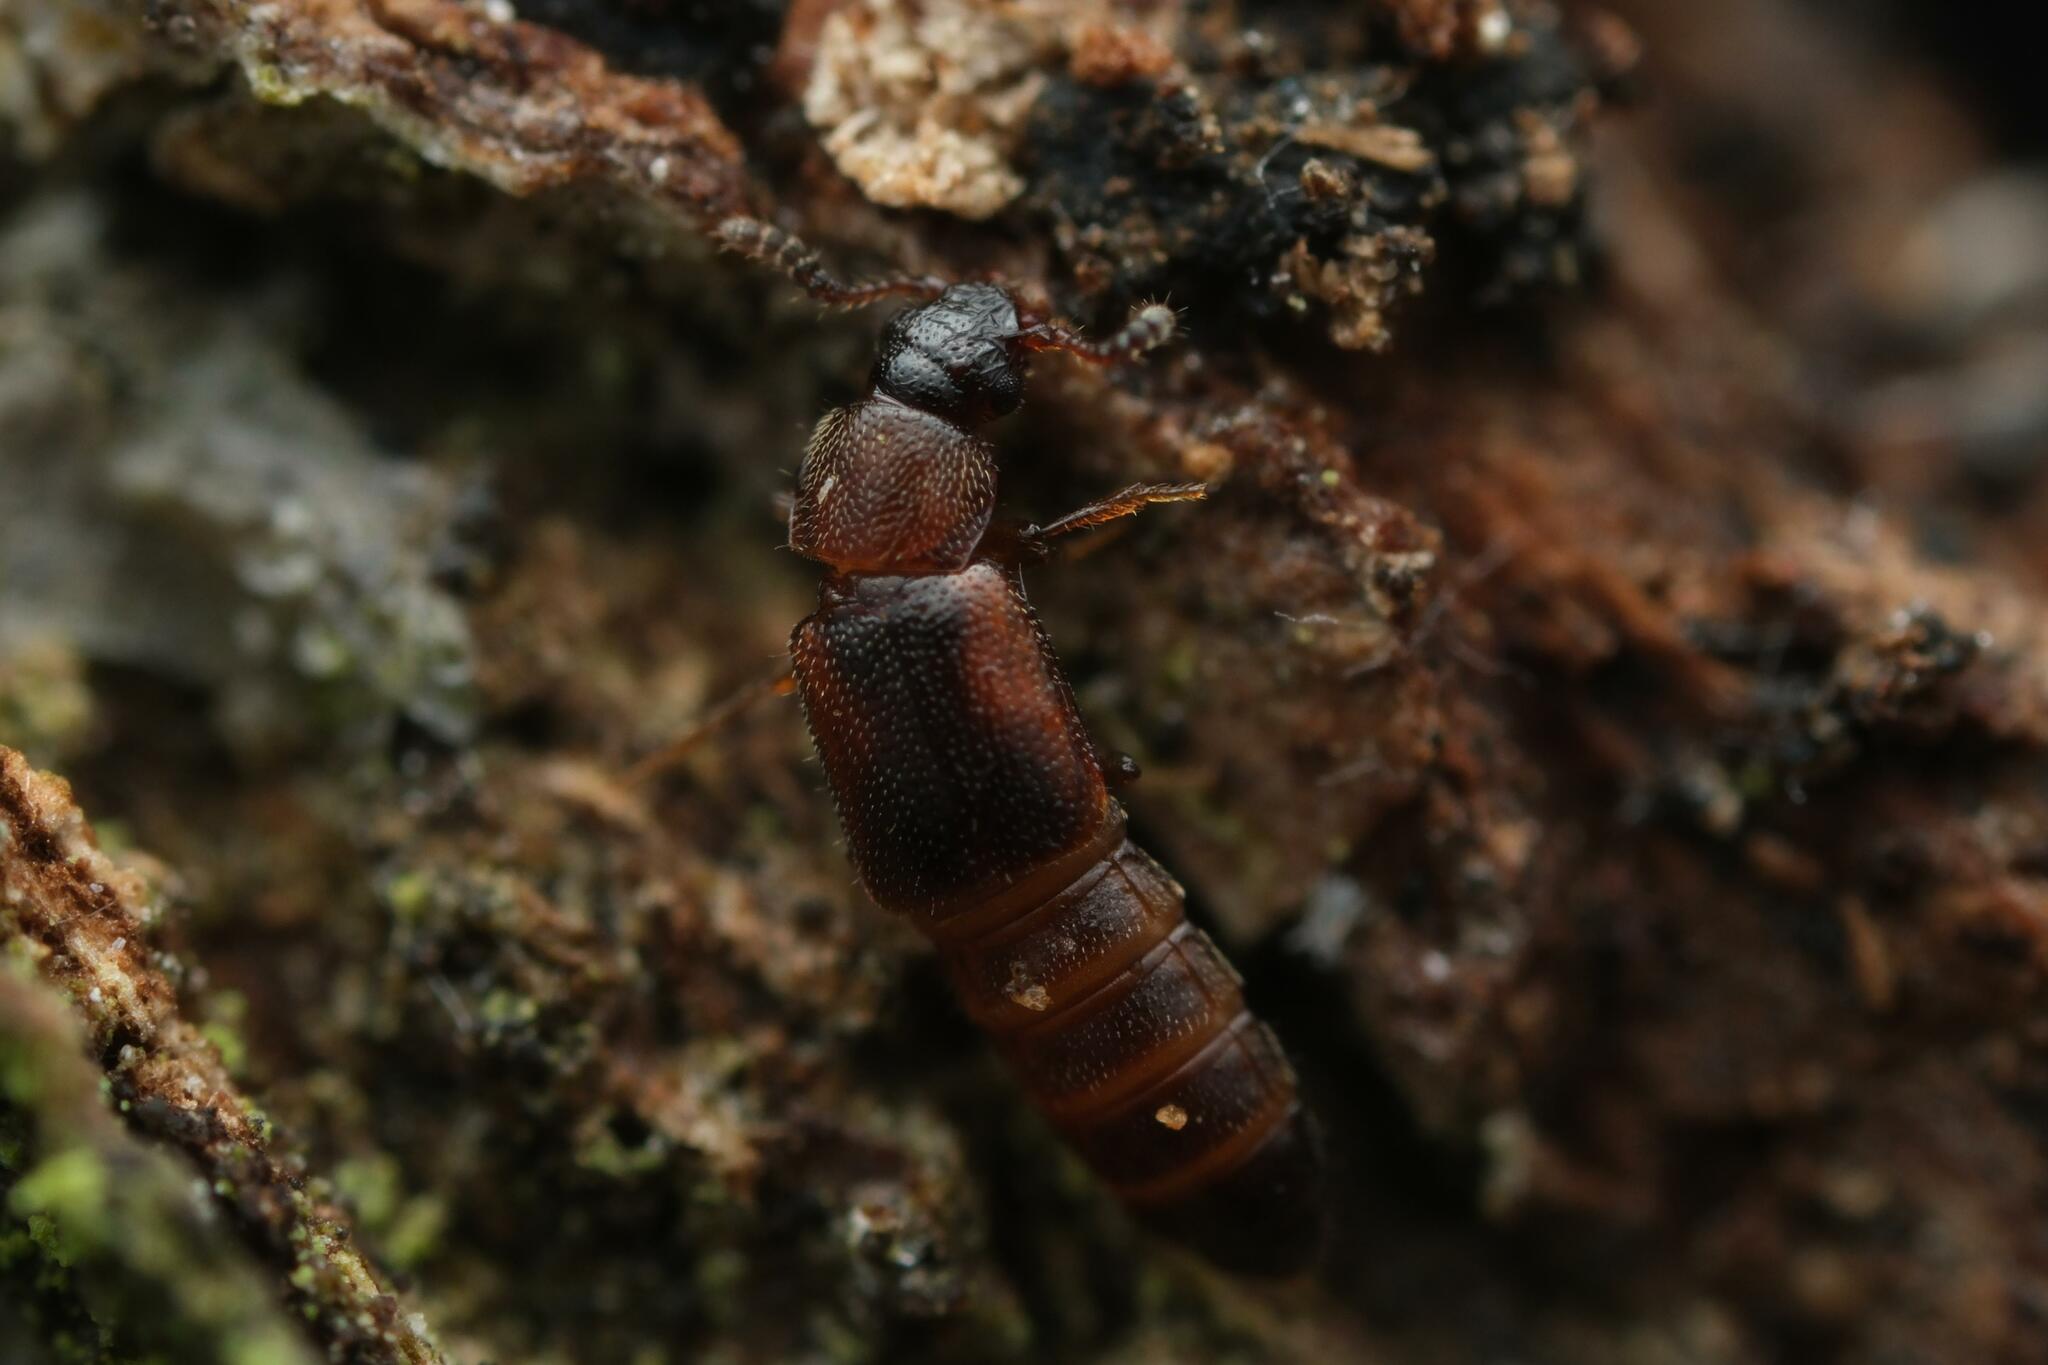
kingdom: Animalia
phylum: Arthropoda
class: Insecta
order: Coleoptera
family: Staphylinidae
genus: Dropephylla
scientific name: Dropephylla ioptera
